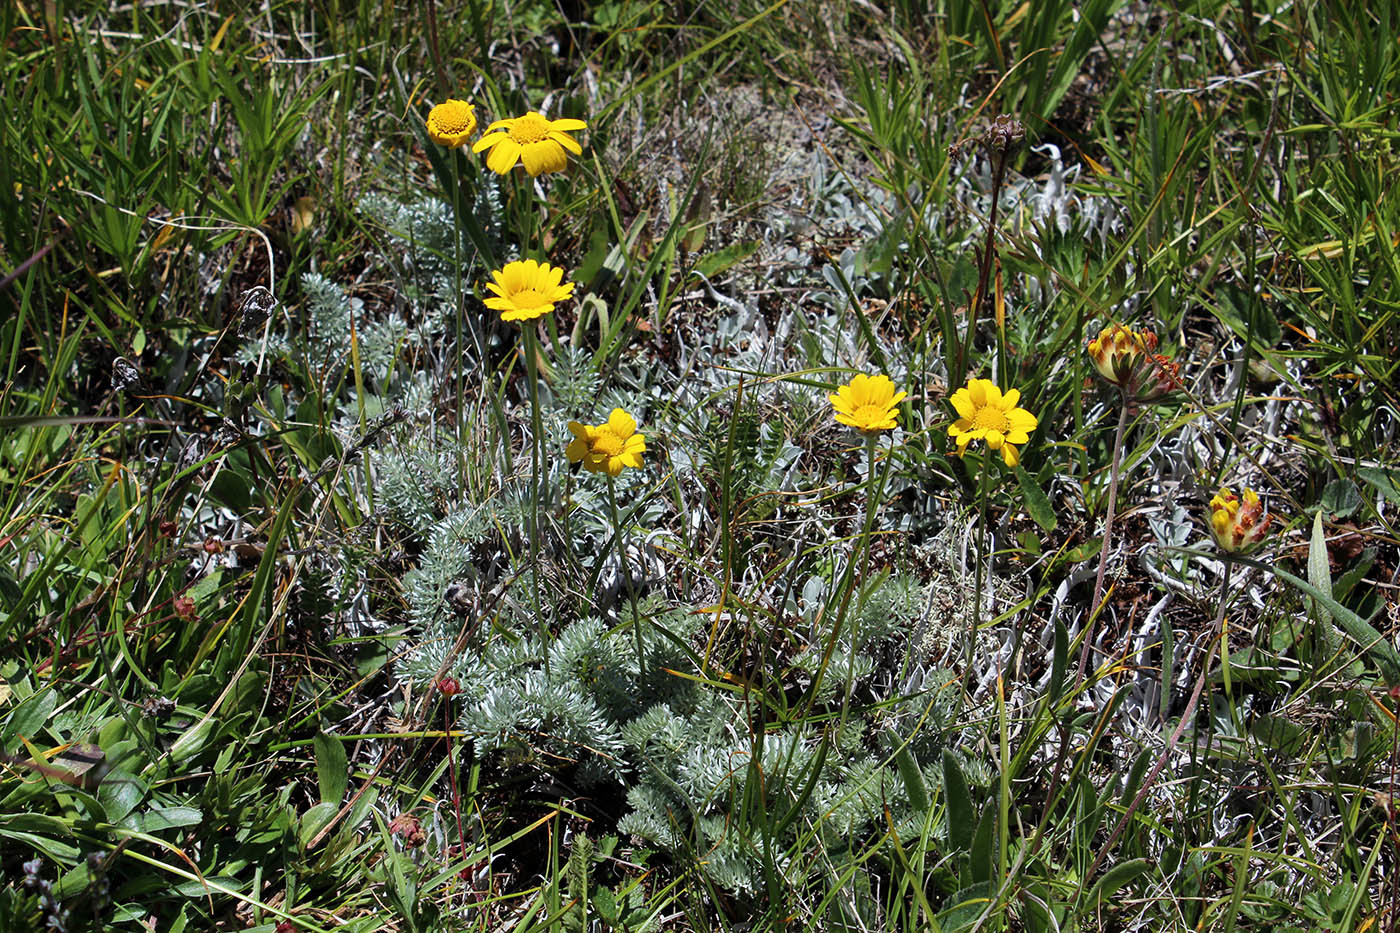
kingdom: Plantae
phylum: Tracheophyta
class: Magnoliopsida
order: Asterales
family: Asteraceae
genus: Archanthemis
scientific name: Archanthemis marschalliana
